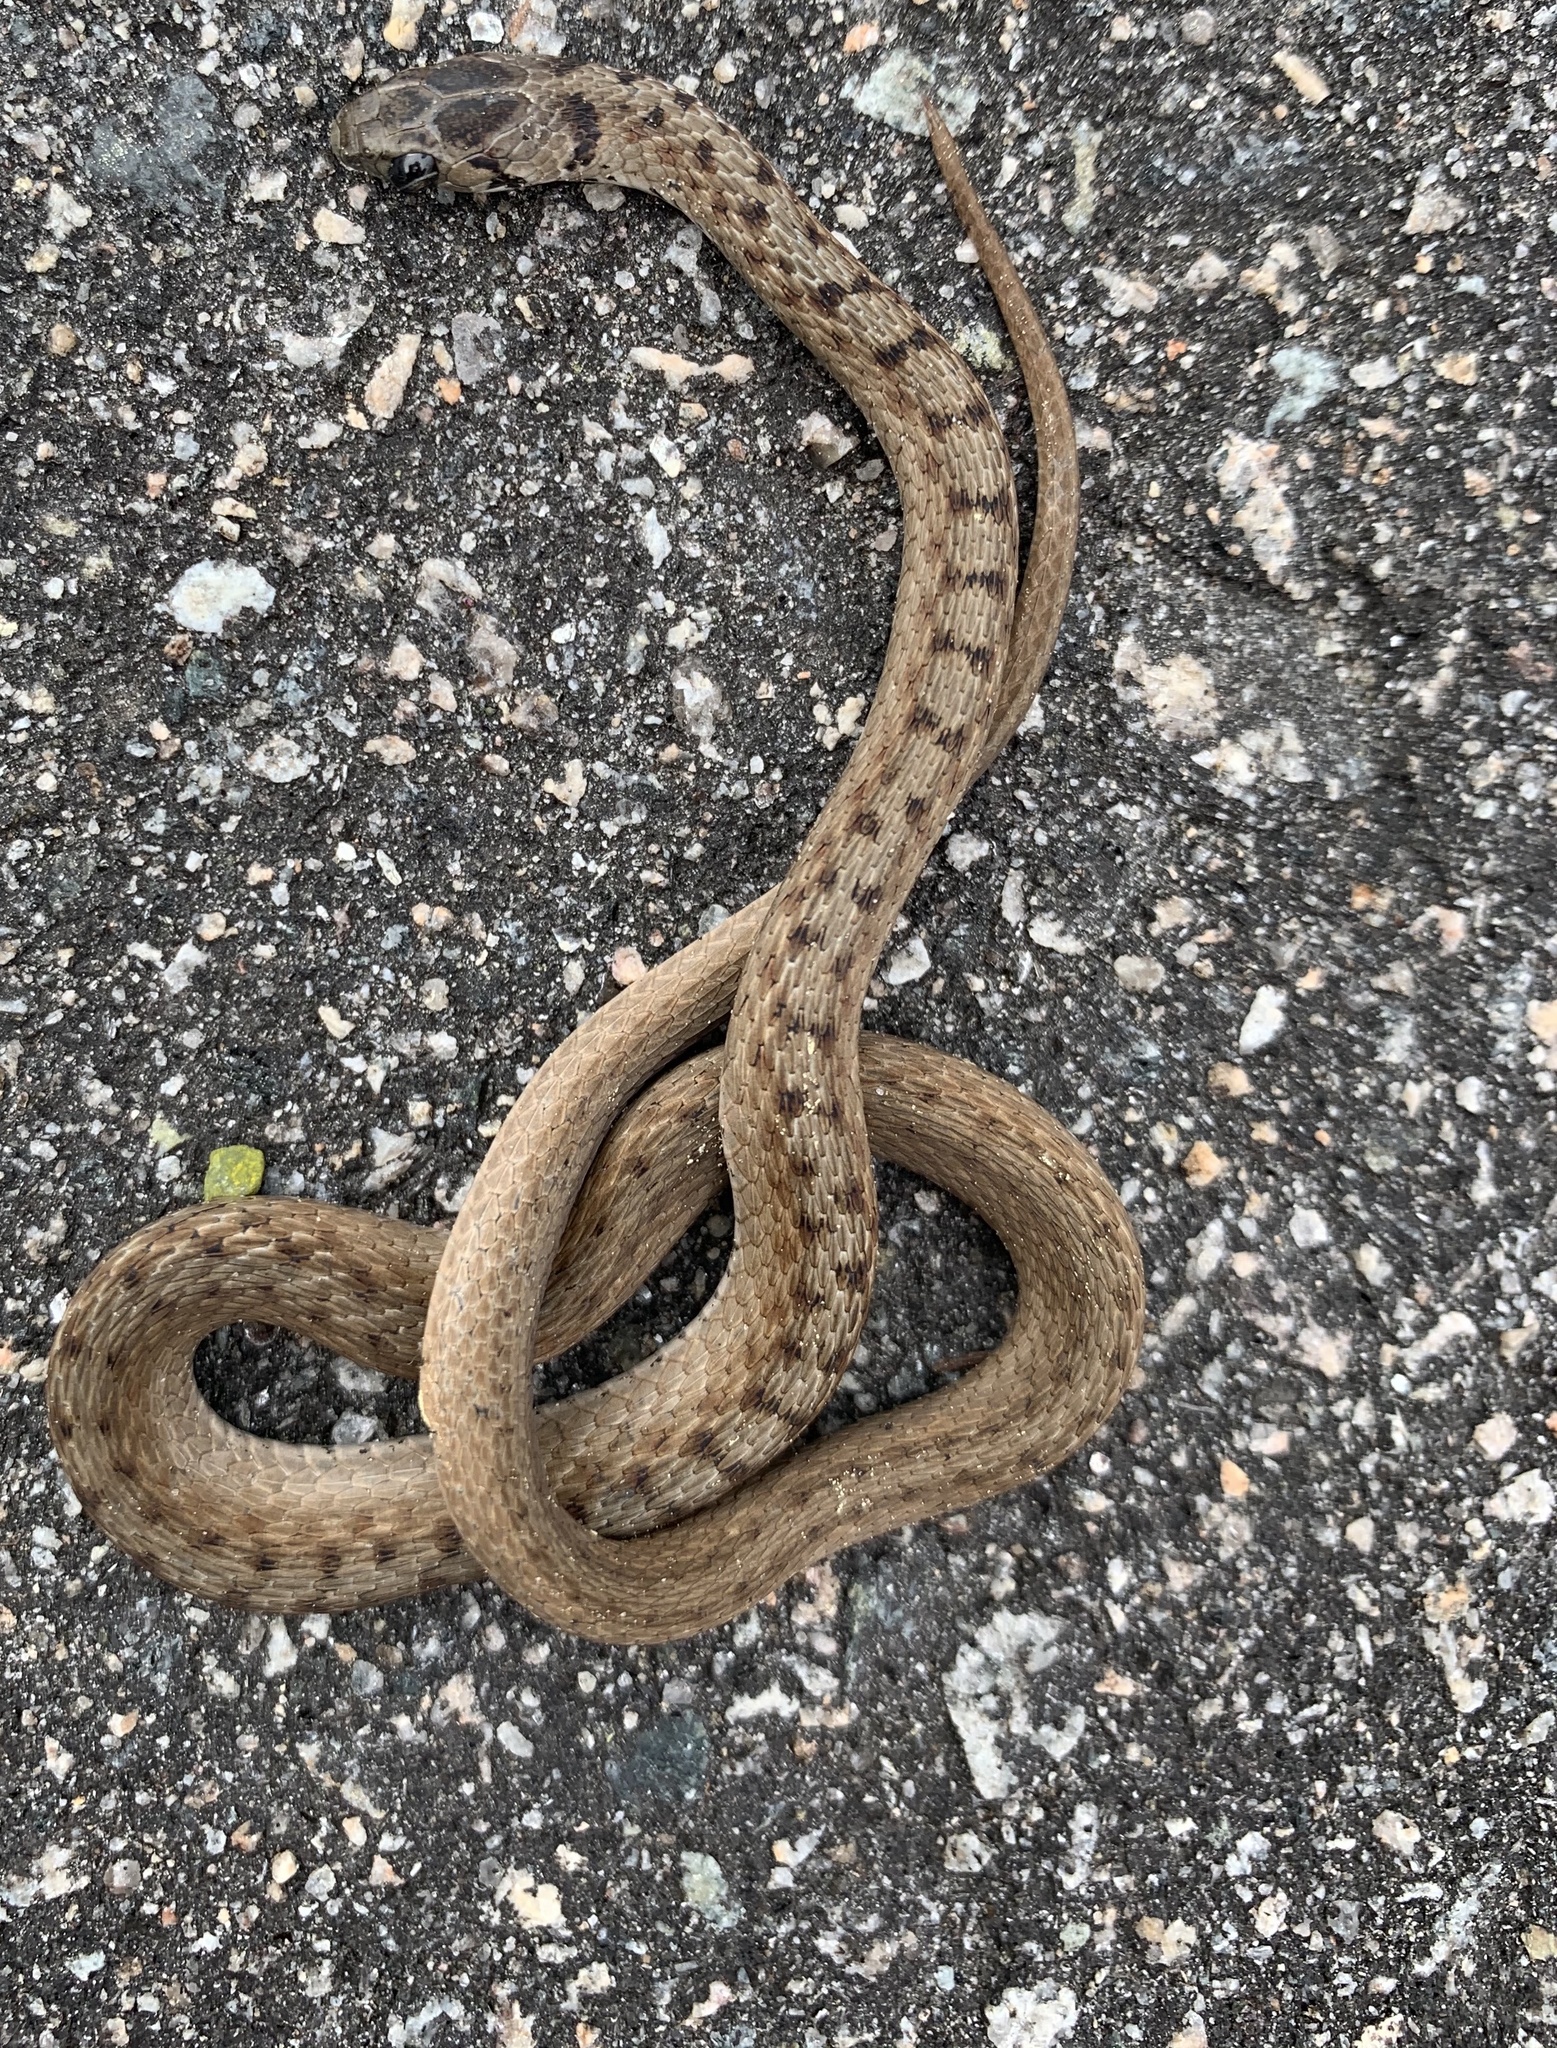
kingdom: Animalia
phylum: Chordata
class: Squamata
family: Colubridae
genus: Storeria
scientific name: Storeria dekayi
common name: (dekay’s) brown snake
